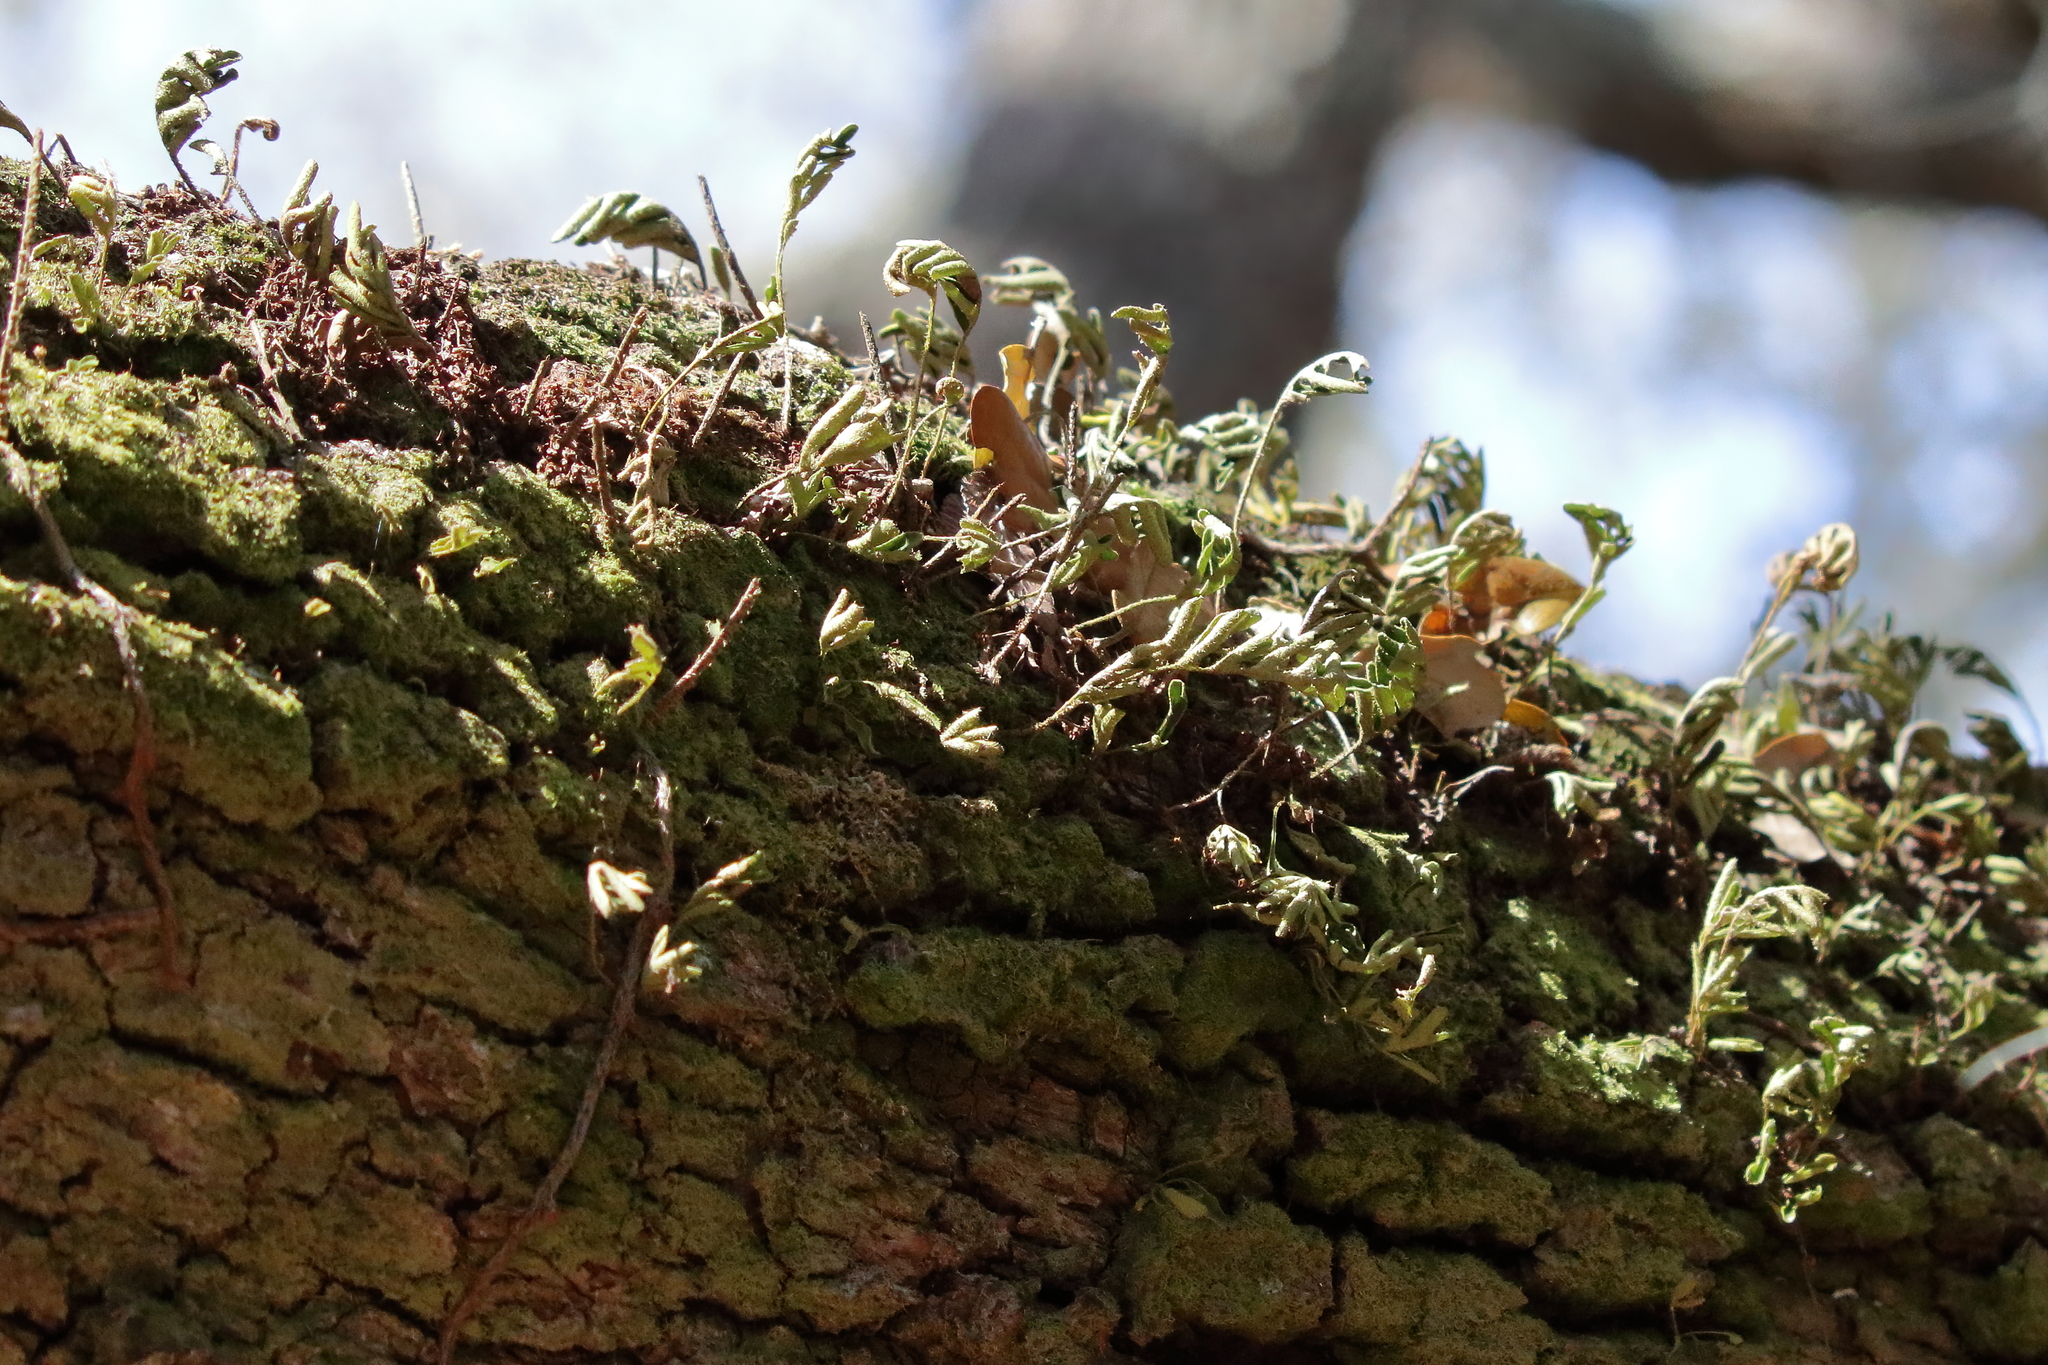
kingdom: Plantae
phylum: Tracheophyta
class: Polypodiopsida
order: Polypodiales
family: Polypodiaceae
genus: Pleopeltis
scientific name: Pleopeltis michauxiana
